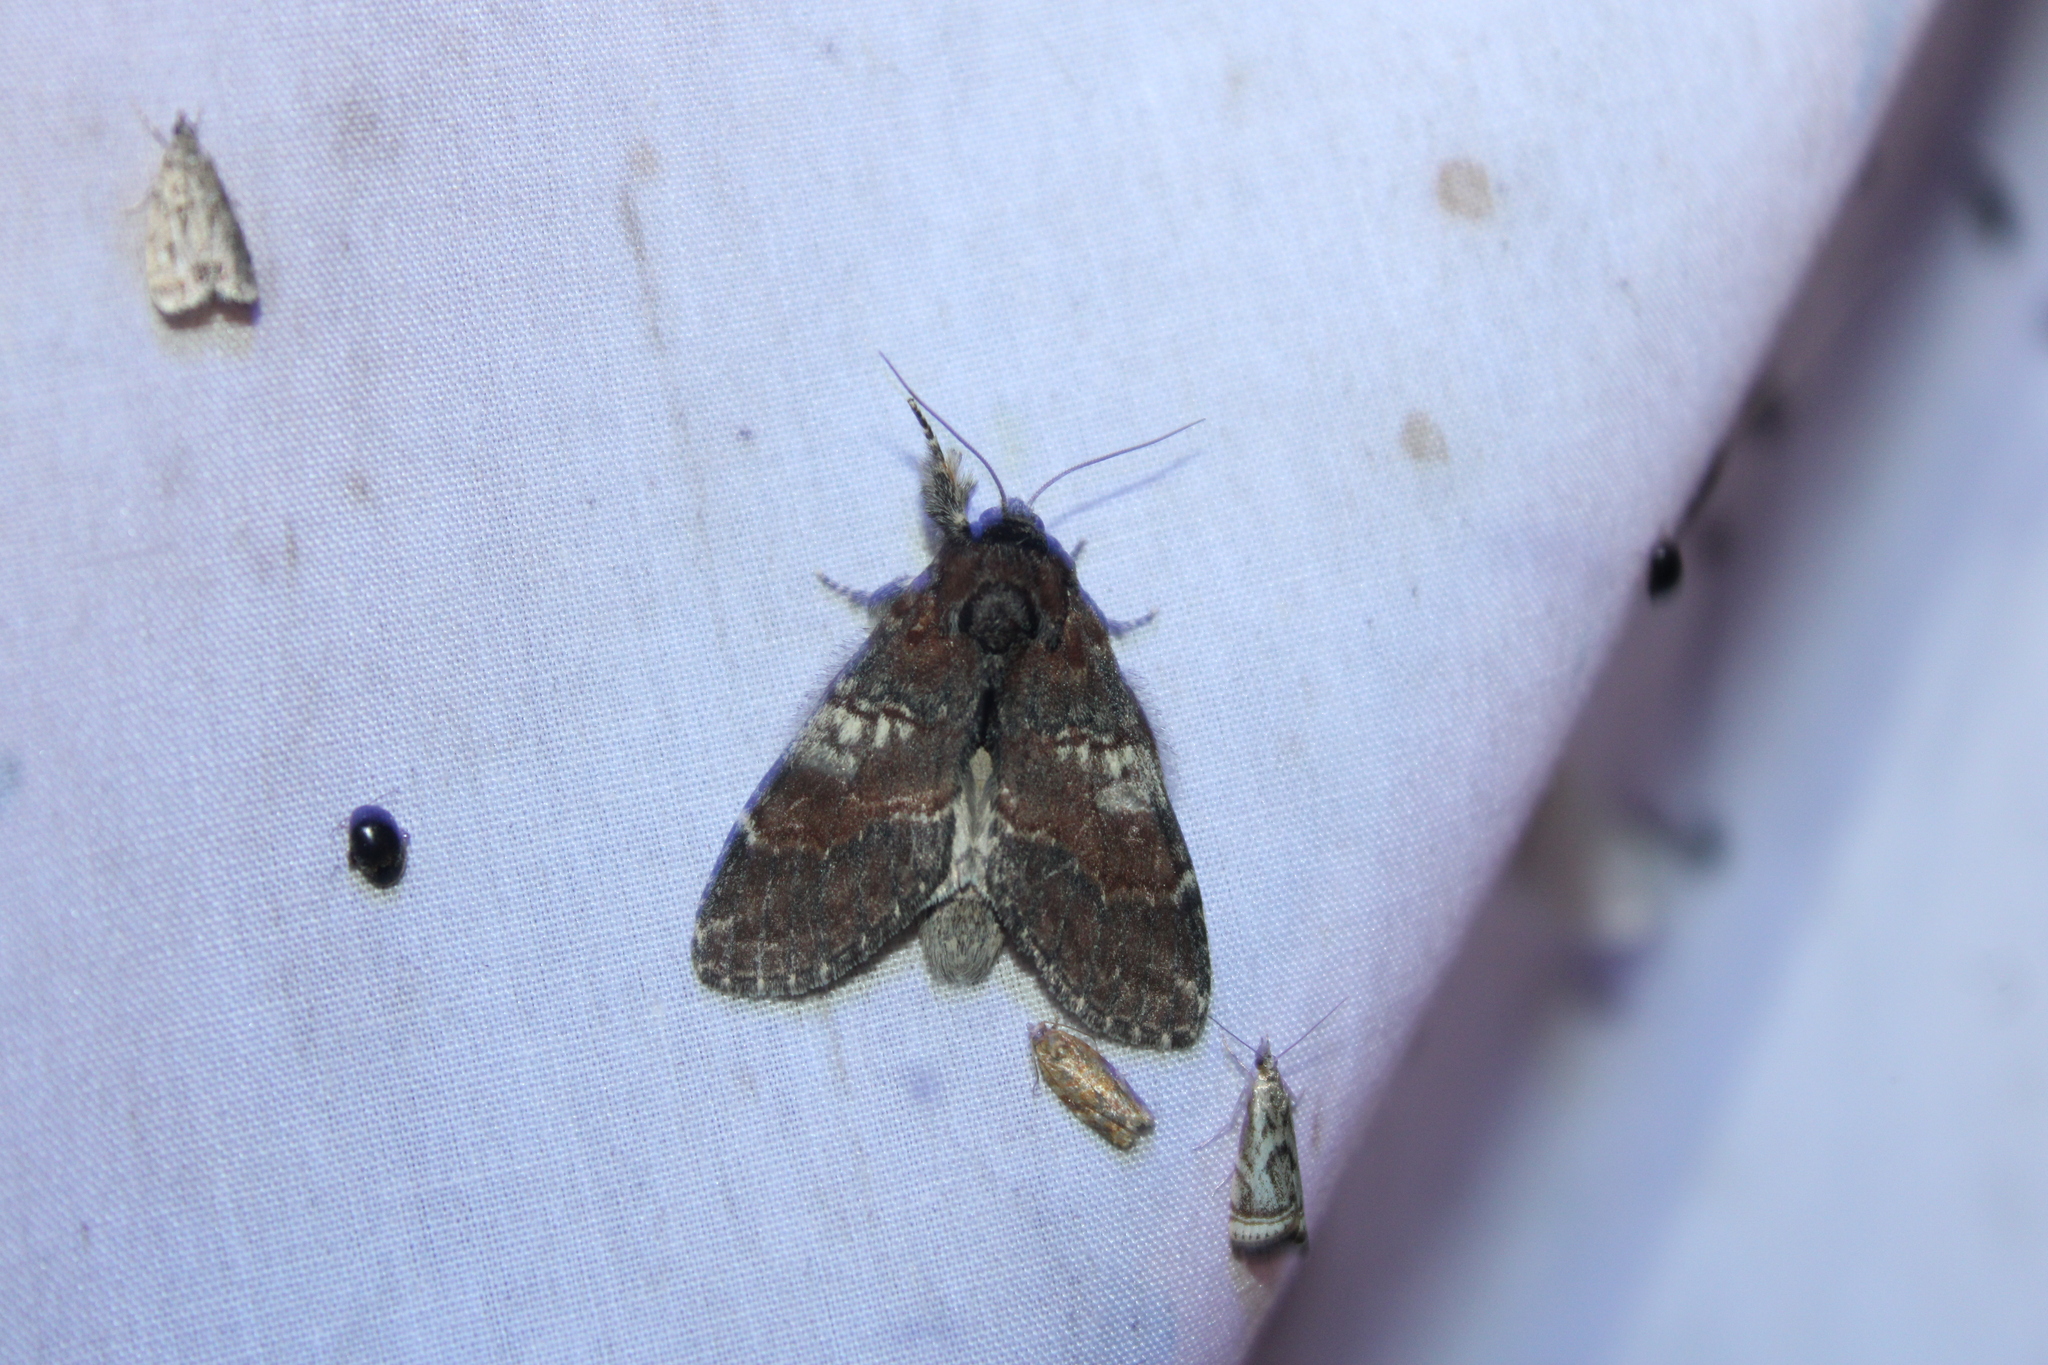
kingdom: Animalia
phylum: Arthropoda
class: Insecta
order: Lepidoptera
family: Notodontidae
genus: Peridea
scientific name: Peridea ferruginea
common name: Chocolate prominent
